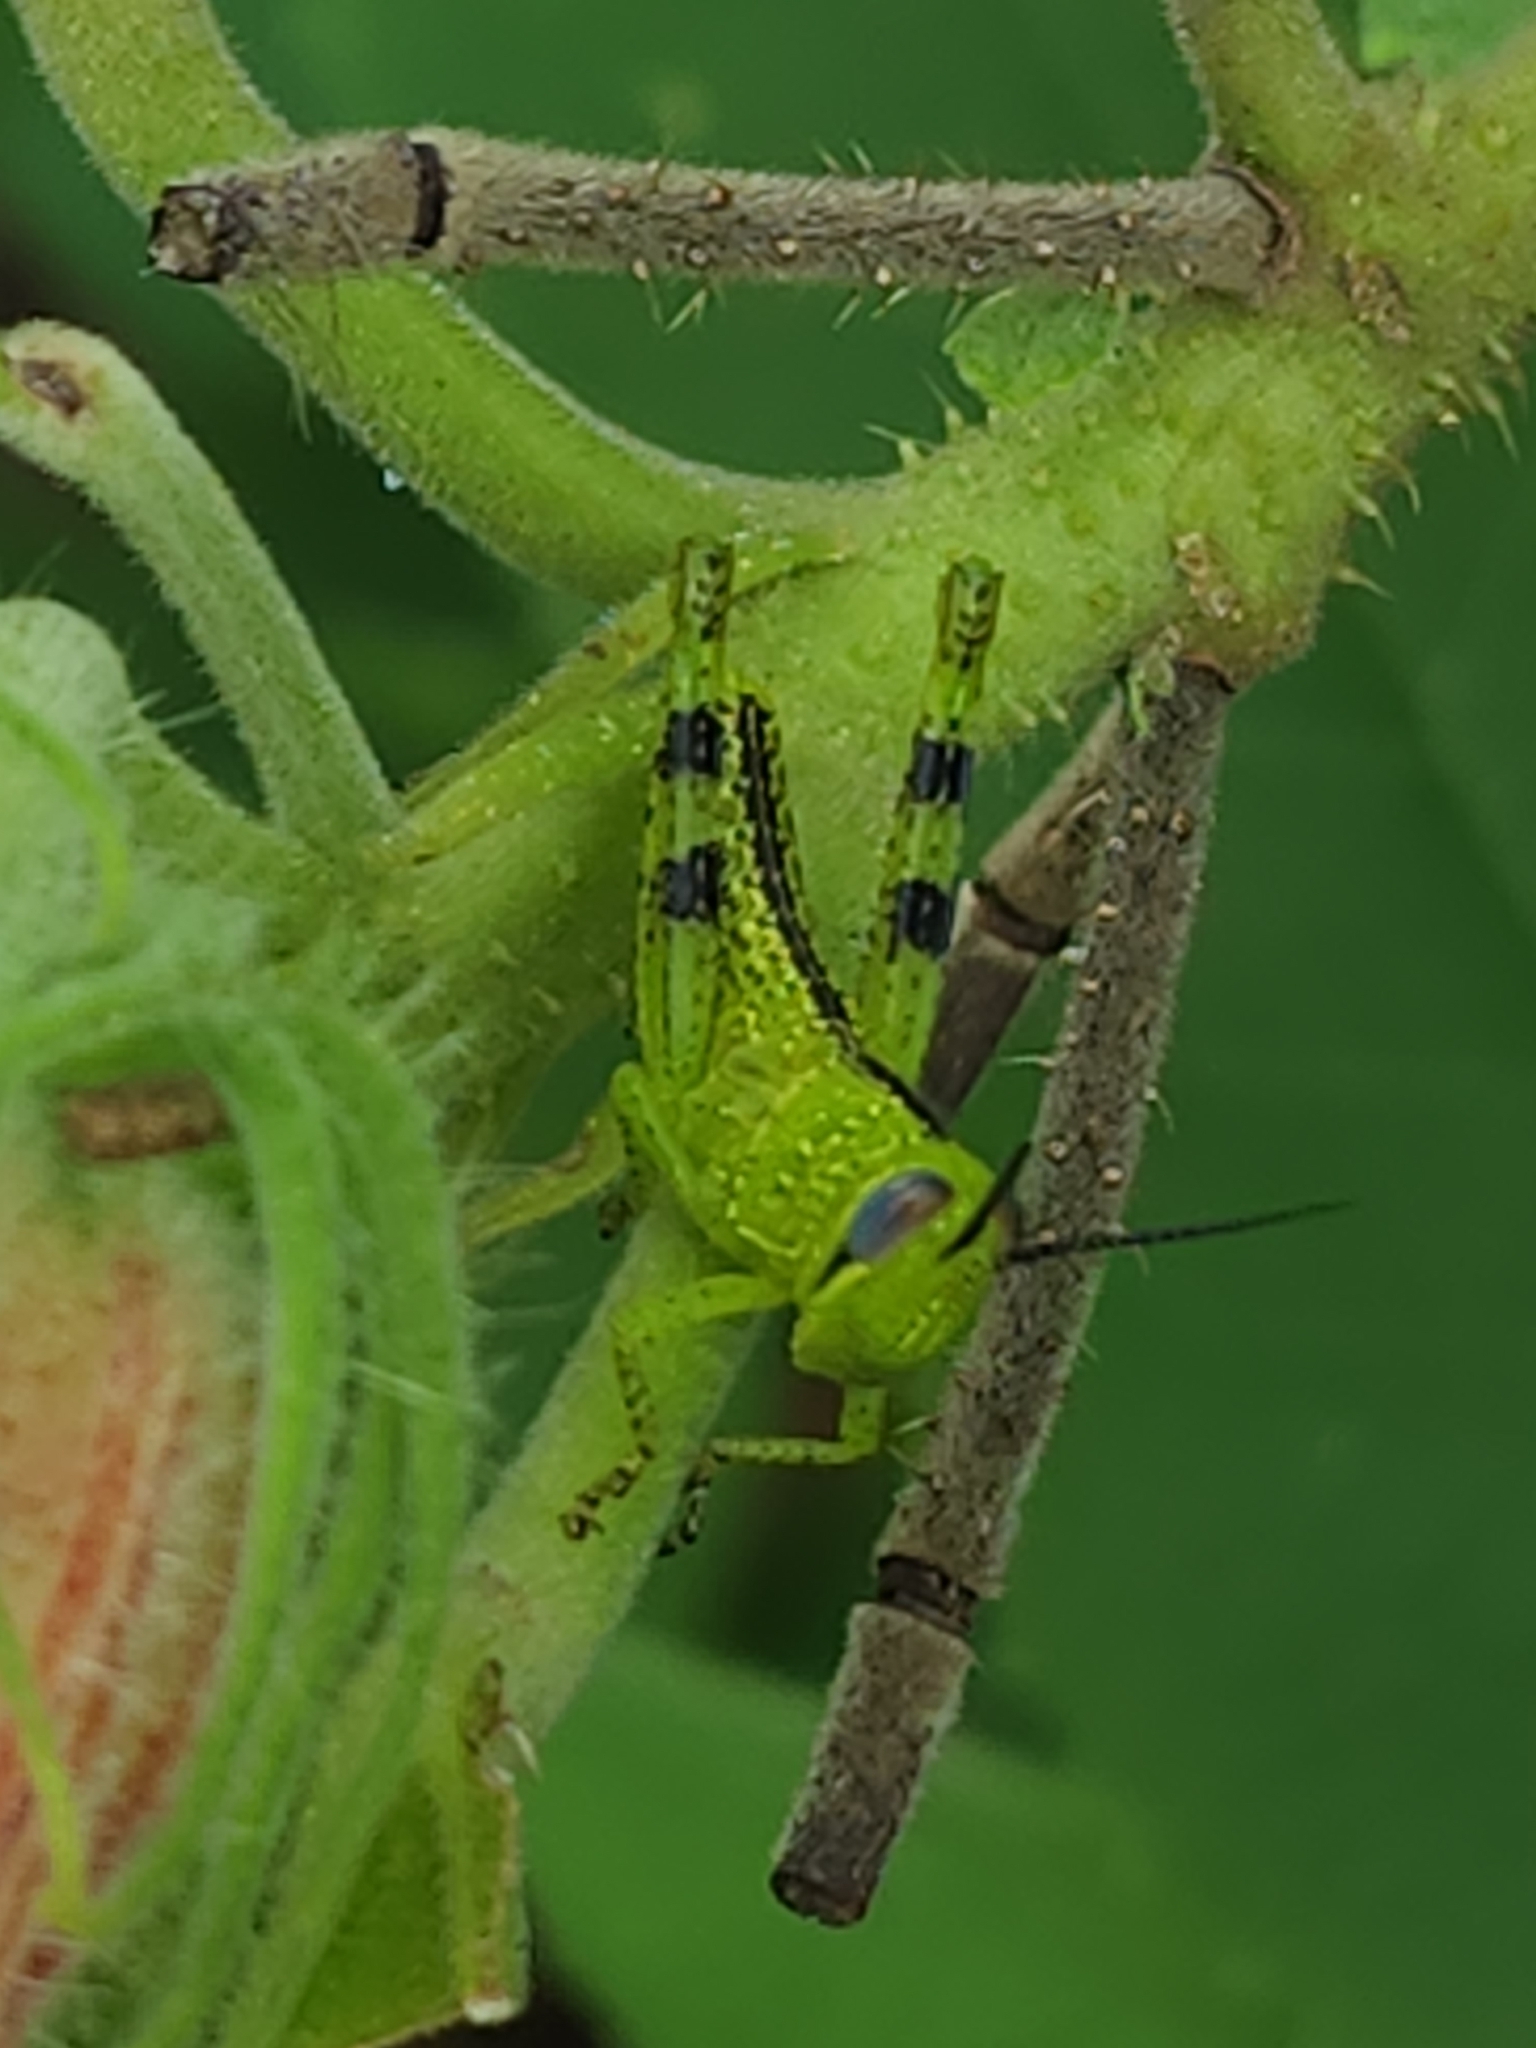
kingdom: Animalia
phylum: Arthropoda
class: Insecta
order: Orthoptera
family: Acrididae
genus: Valanga
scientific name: Valanga irregularis
